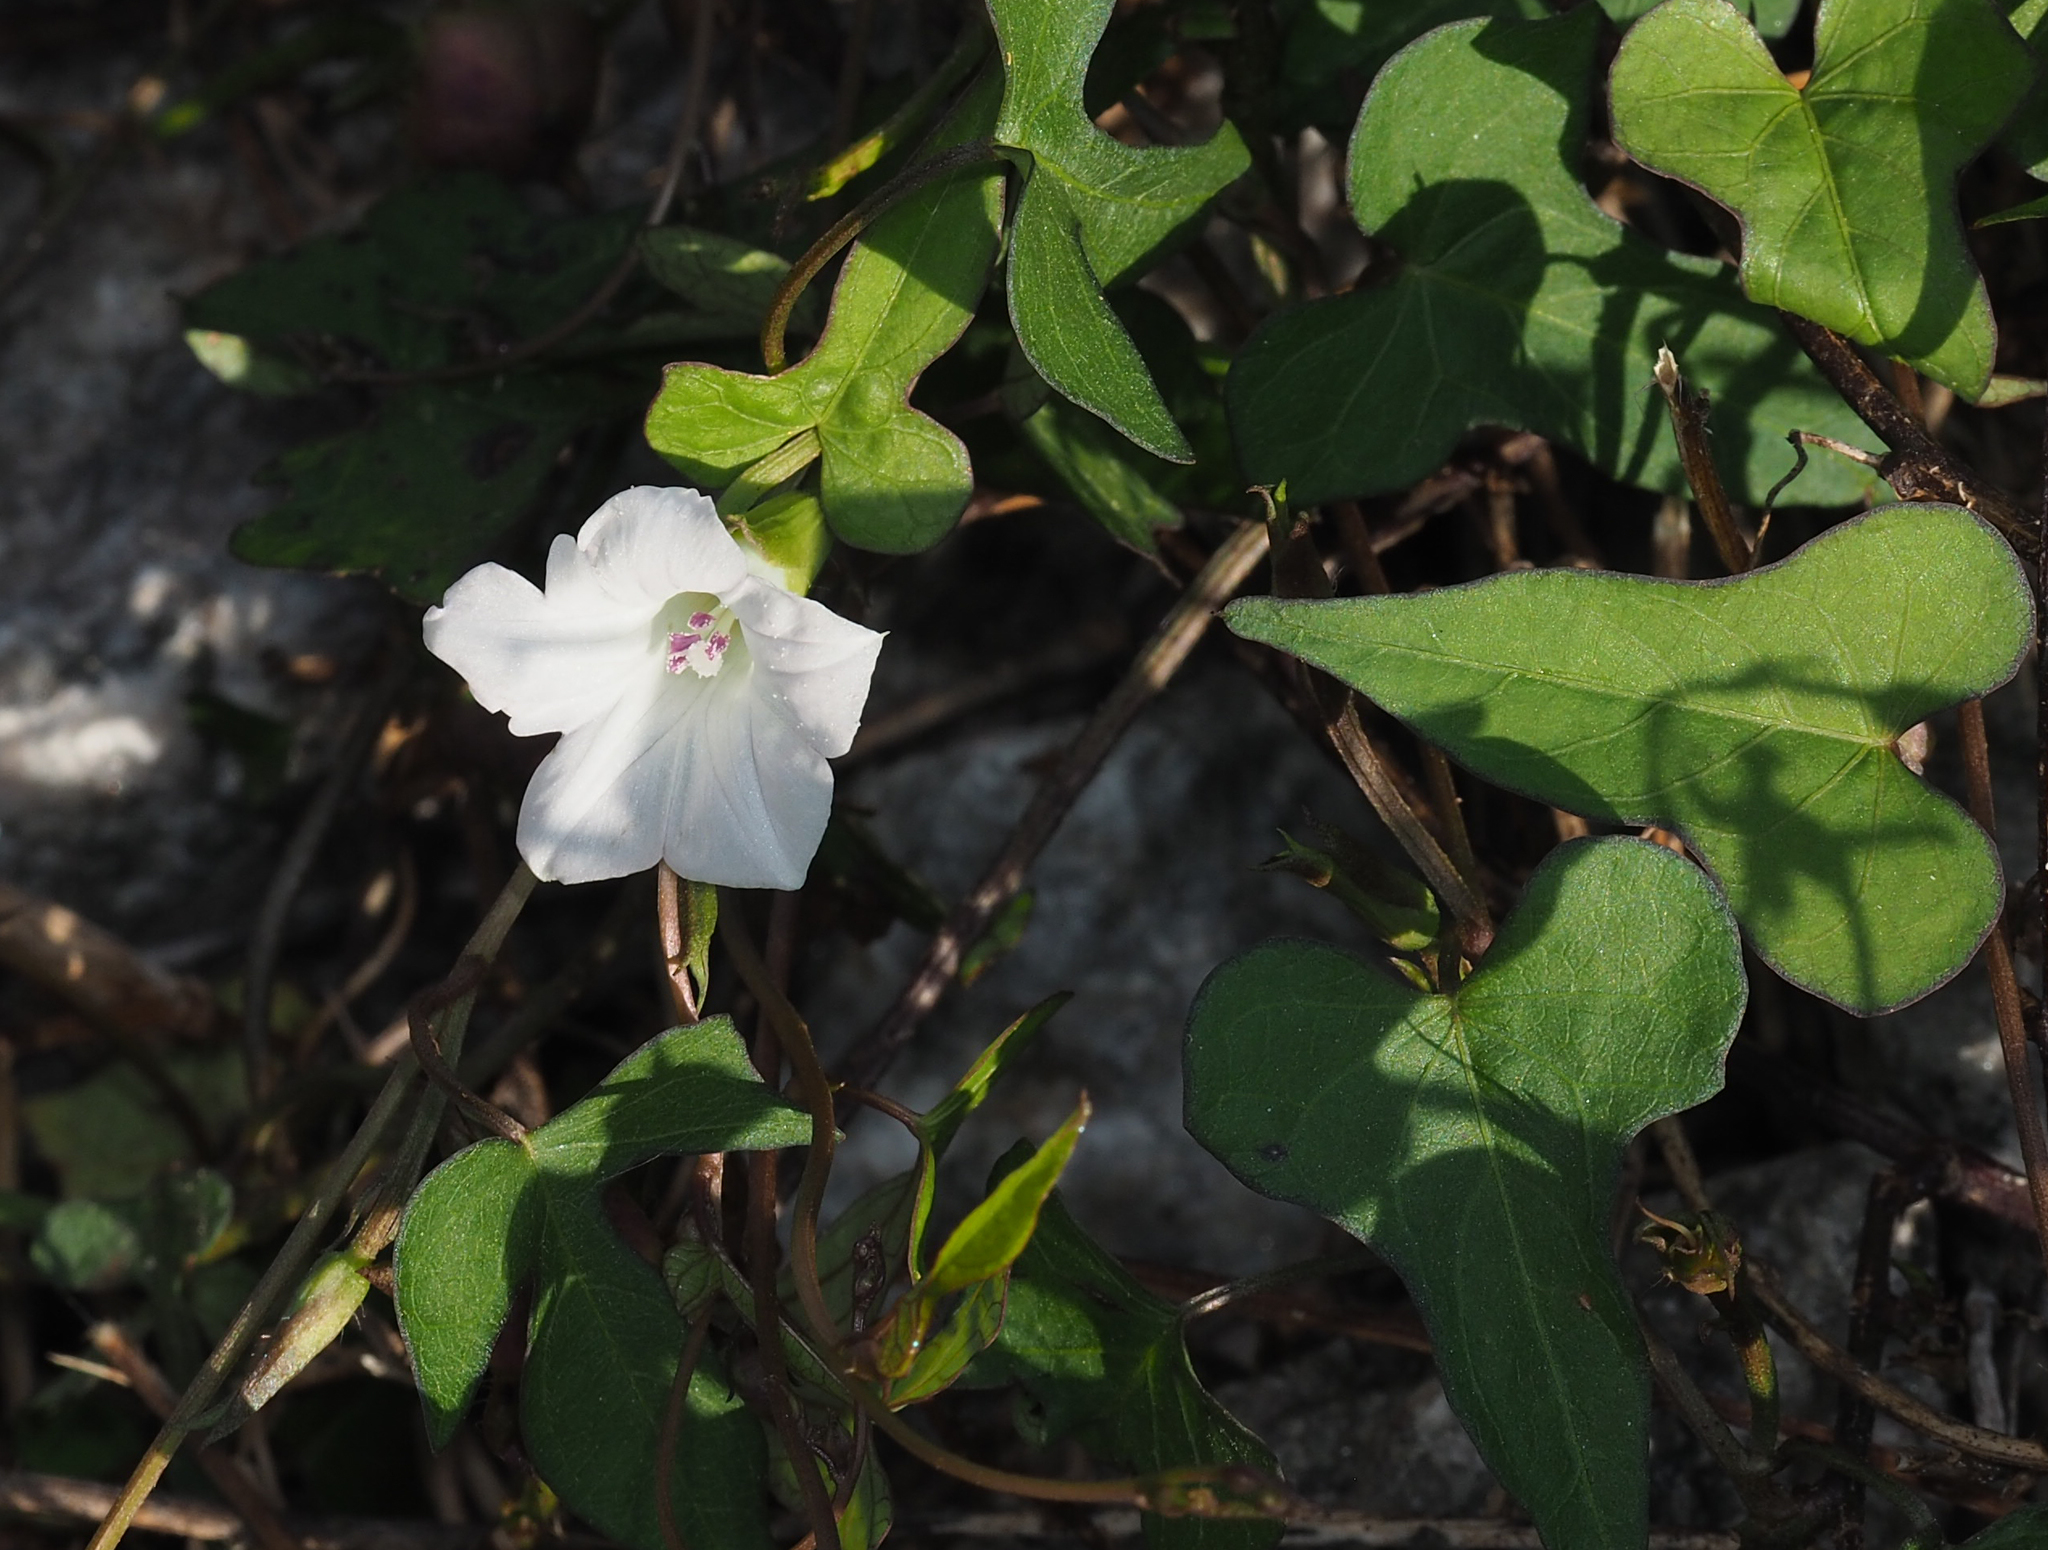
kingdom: Plantae
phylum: Tracheophyta
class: Magnoliopsida
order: Solanales
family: Convolvulaceae
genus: Ipomoea
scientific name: Ipomoea lacunosa
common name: White morning-glory
